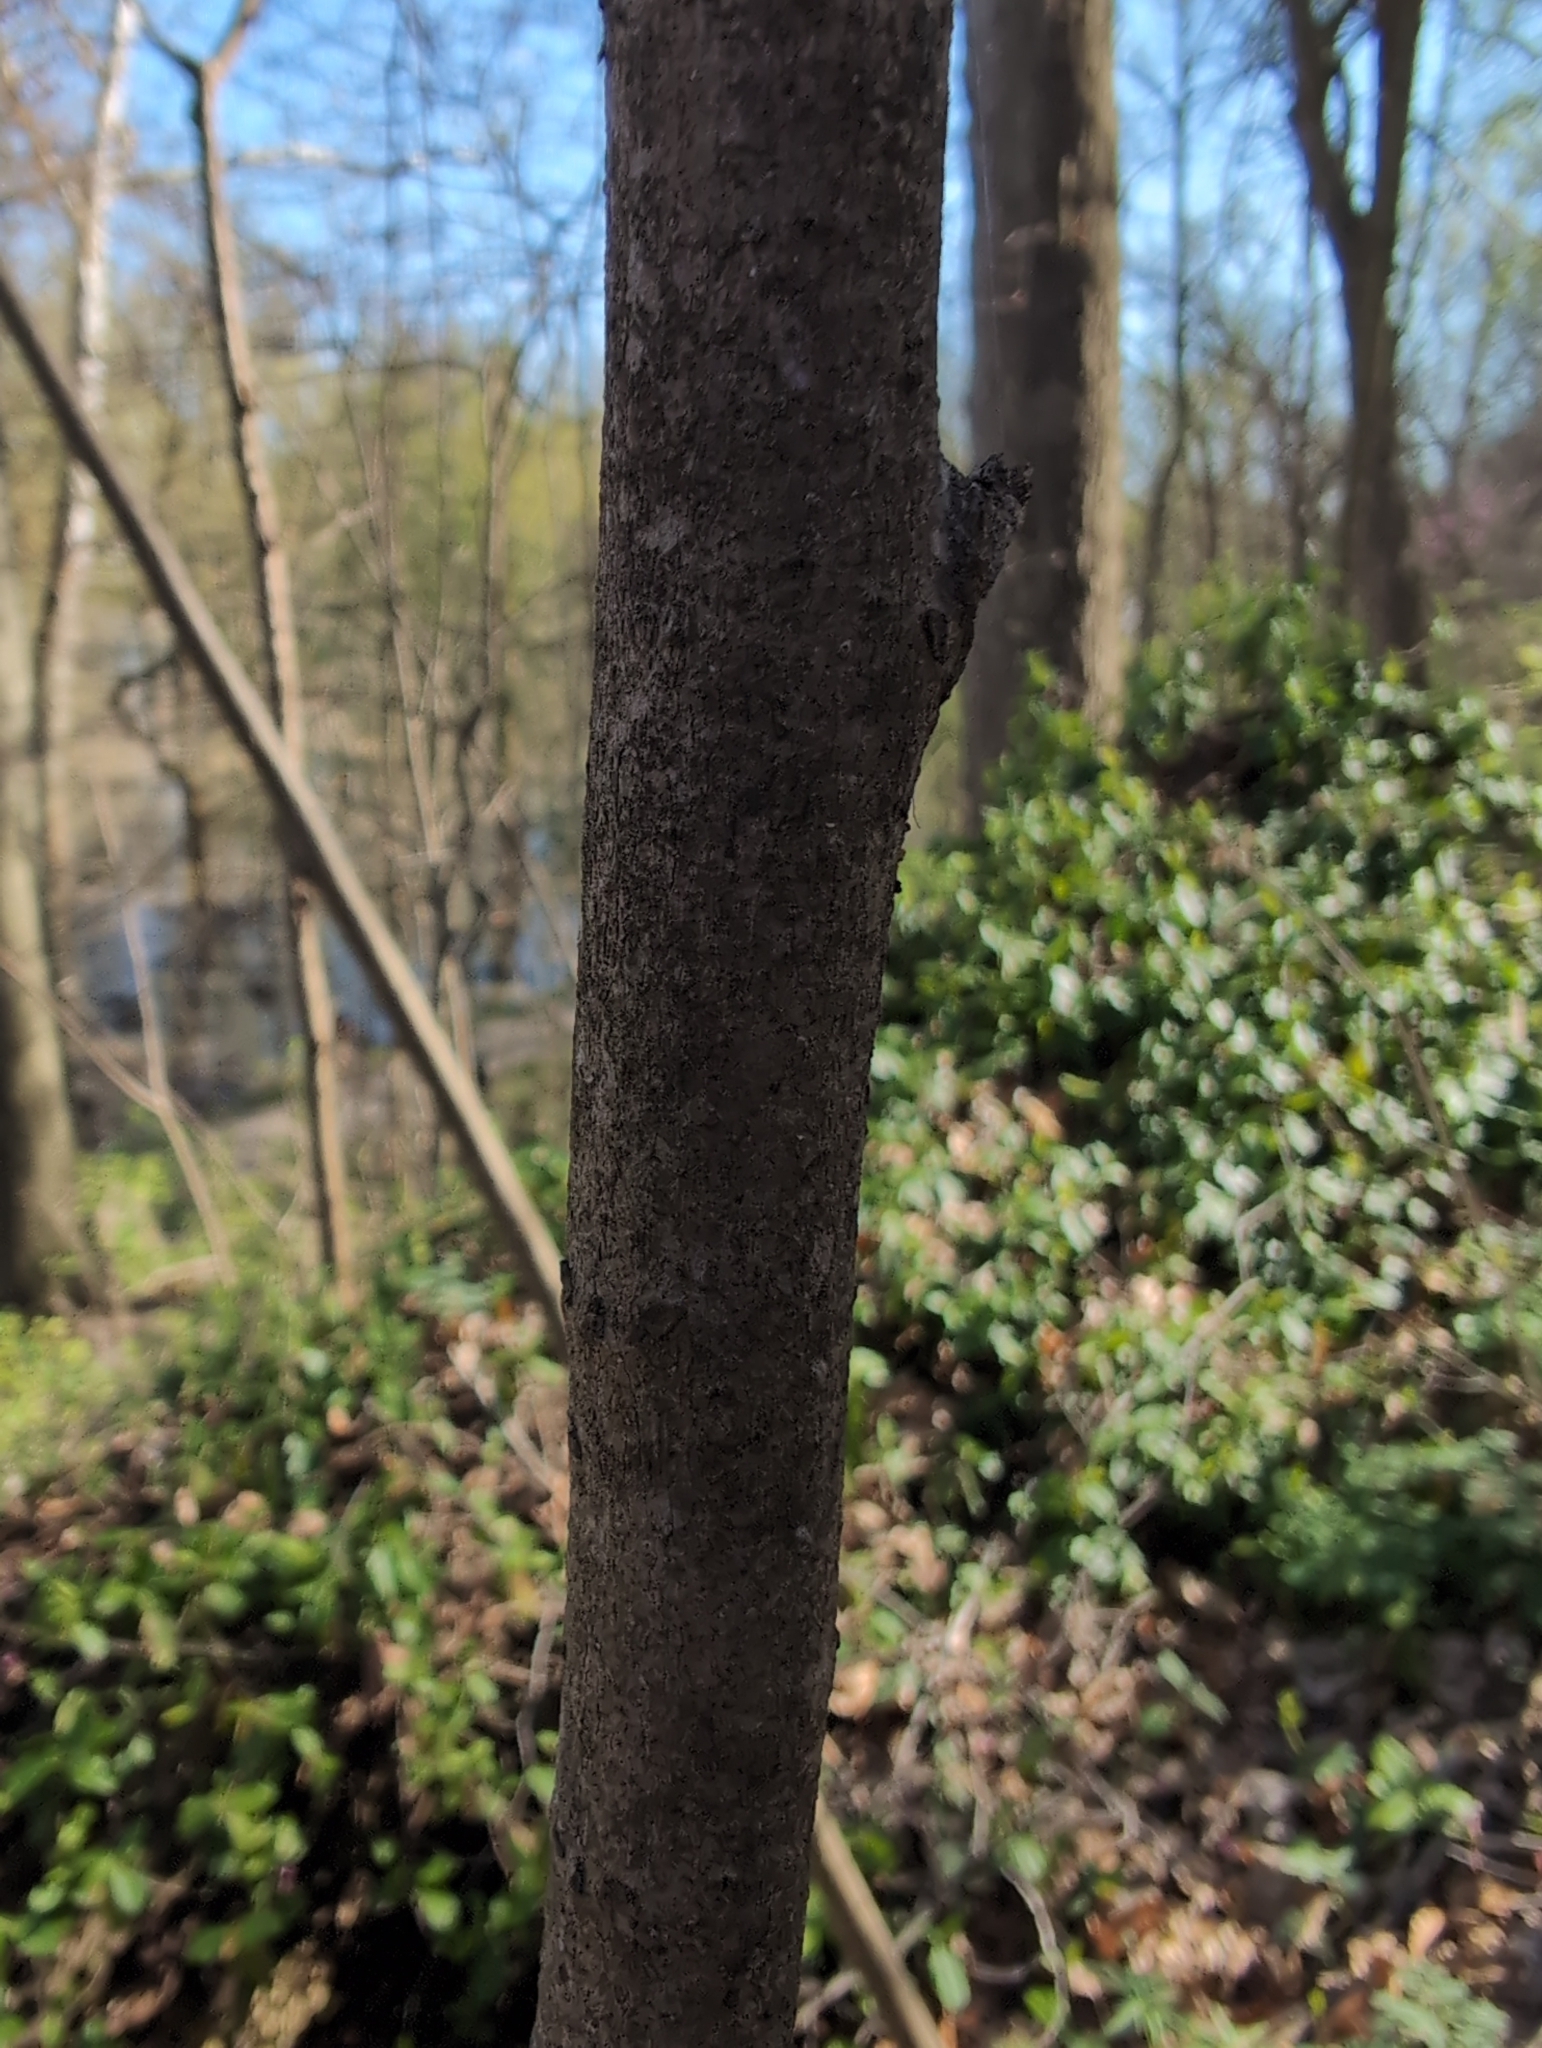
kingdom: Plantae
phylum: Tracheophyta
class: Magnoliopsida
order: Magnoliales
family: Annonaceae
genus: Asimina
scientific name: Asimina triloba
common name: Dog-banana
